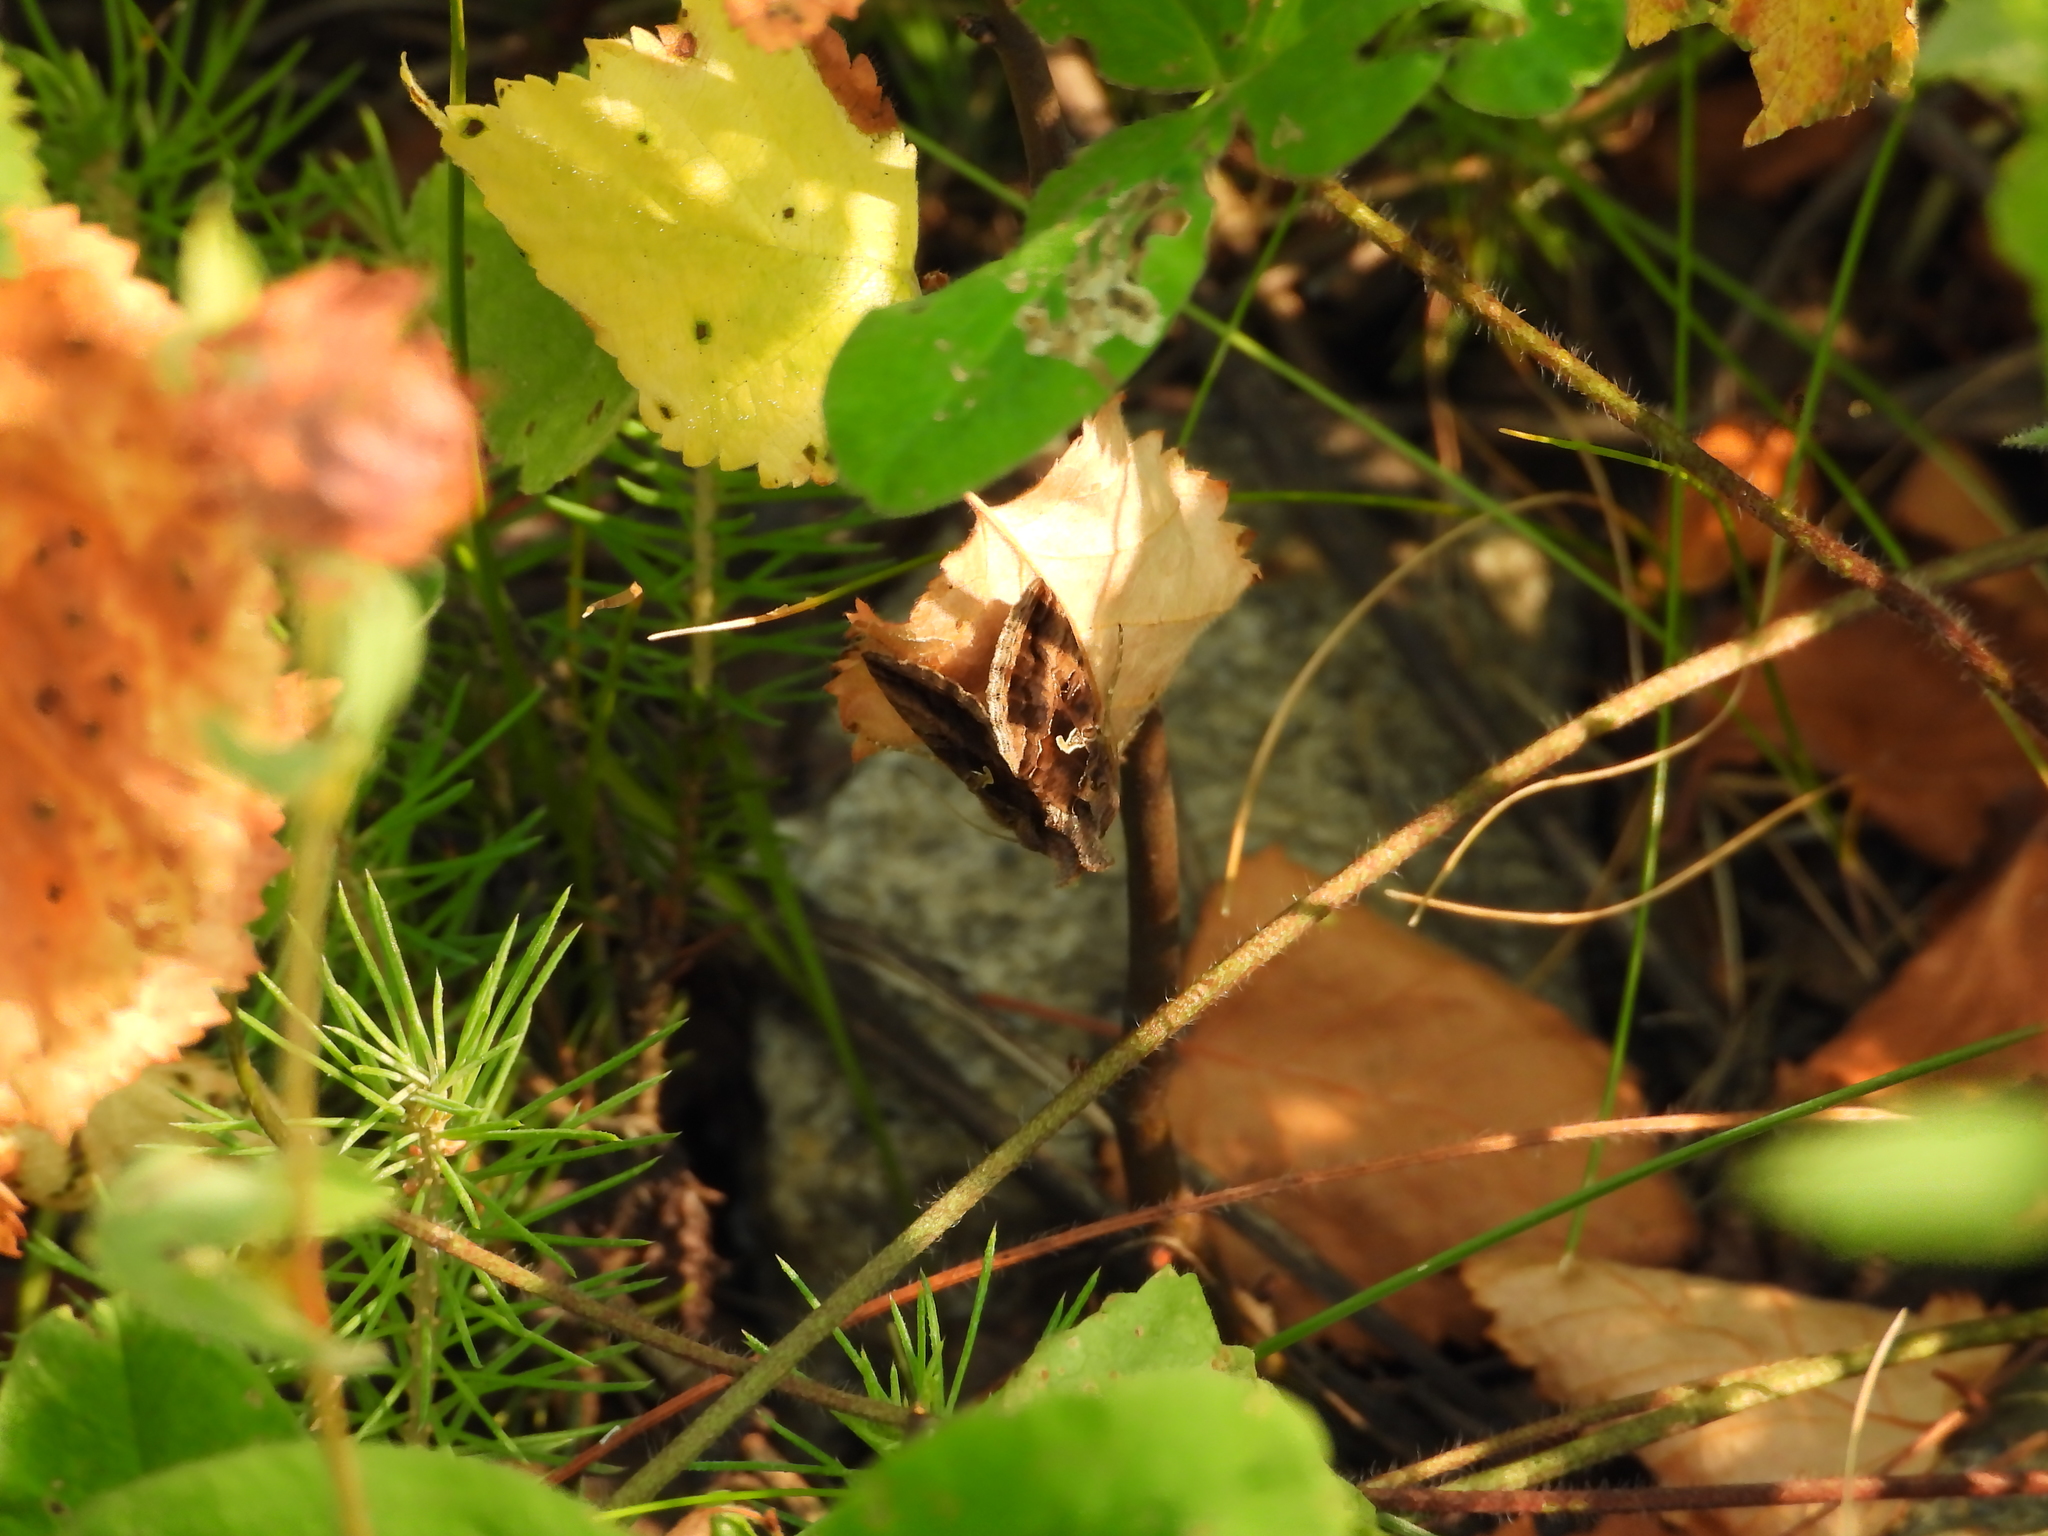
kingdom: Animalia
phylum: Arthropoda
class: Insecta
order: Lepidoptera
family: Noctuidae
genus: Autographa
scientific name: Autographa gamma
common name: Silver y
